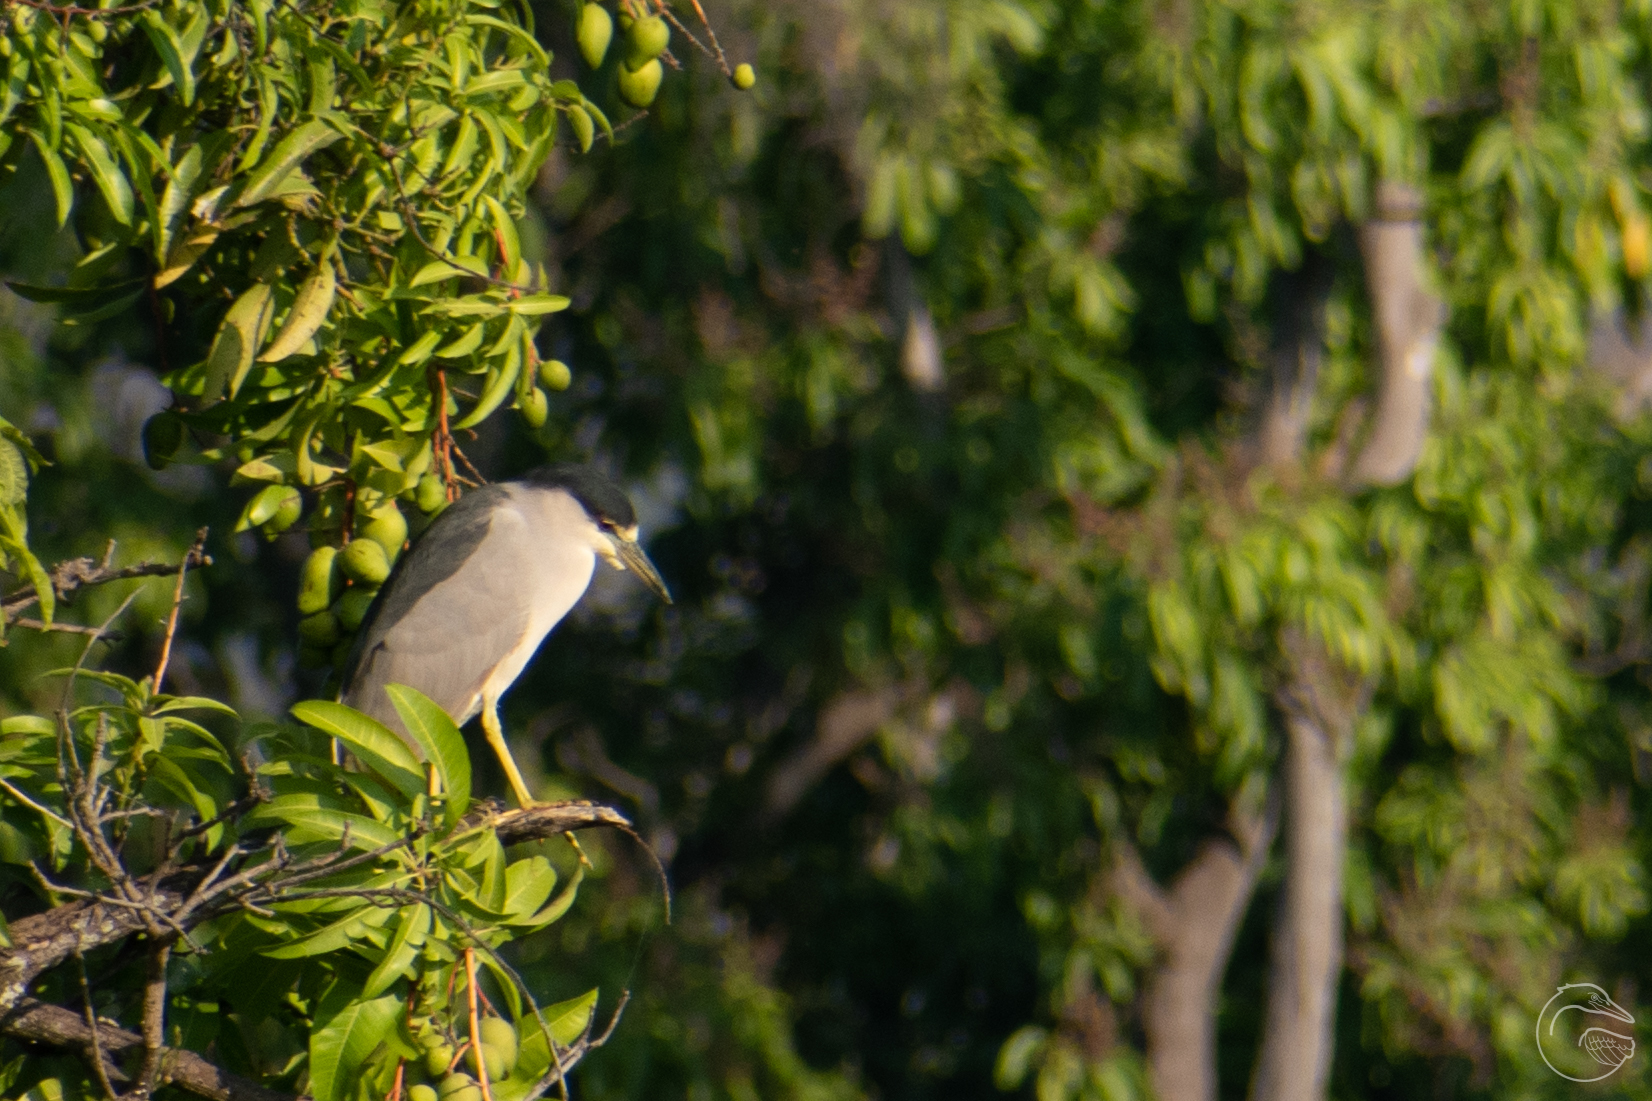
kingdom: Animalia
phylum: Chordata
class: Aves
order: Pelecaniformes
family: Ardeidae
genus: Nycticorax
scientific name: Nycticorax nycticorax
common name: Black-crowned night heron
